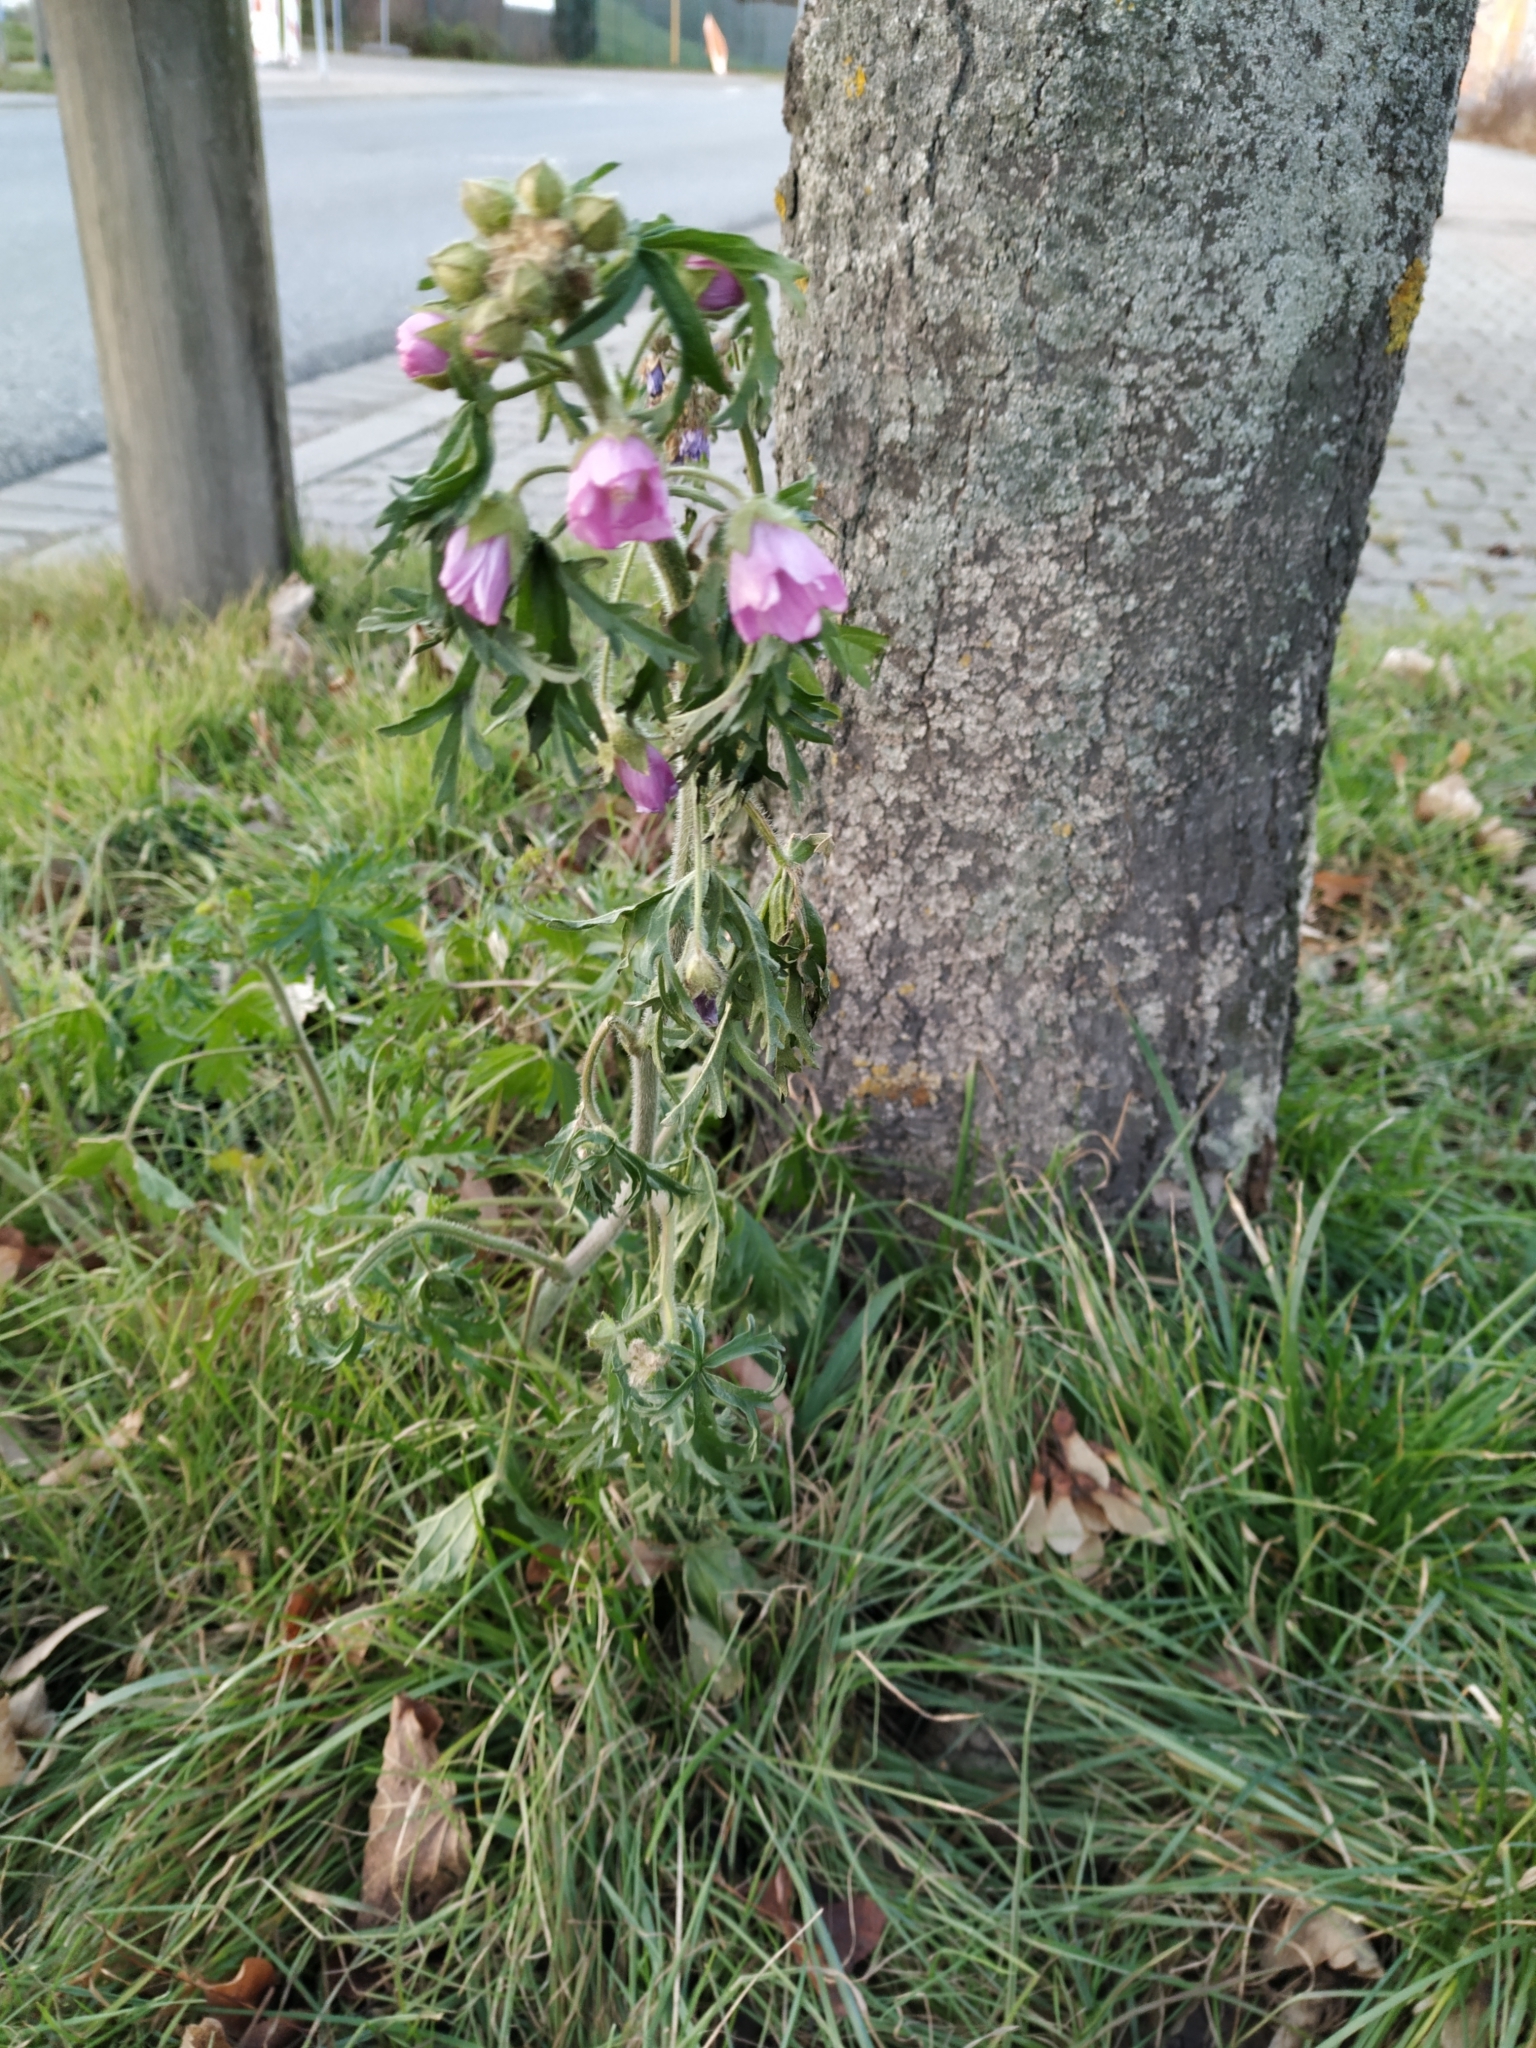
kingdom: Plantae
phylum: Tracheophyta
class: Magnoliopsida
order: Malvales
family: Malvaceae
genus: Malva
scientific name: Malva moschata
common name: Musk mallow
